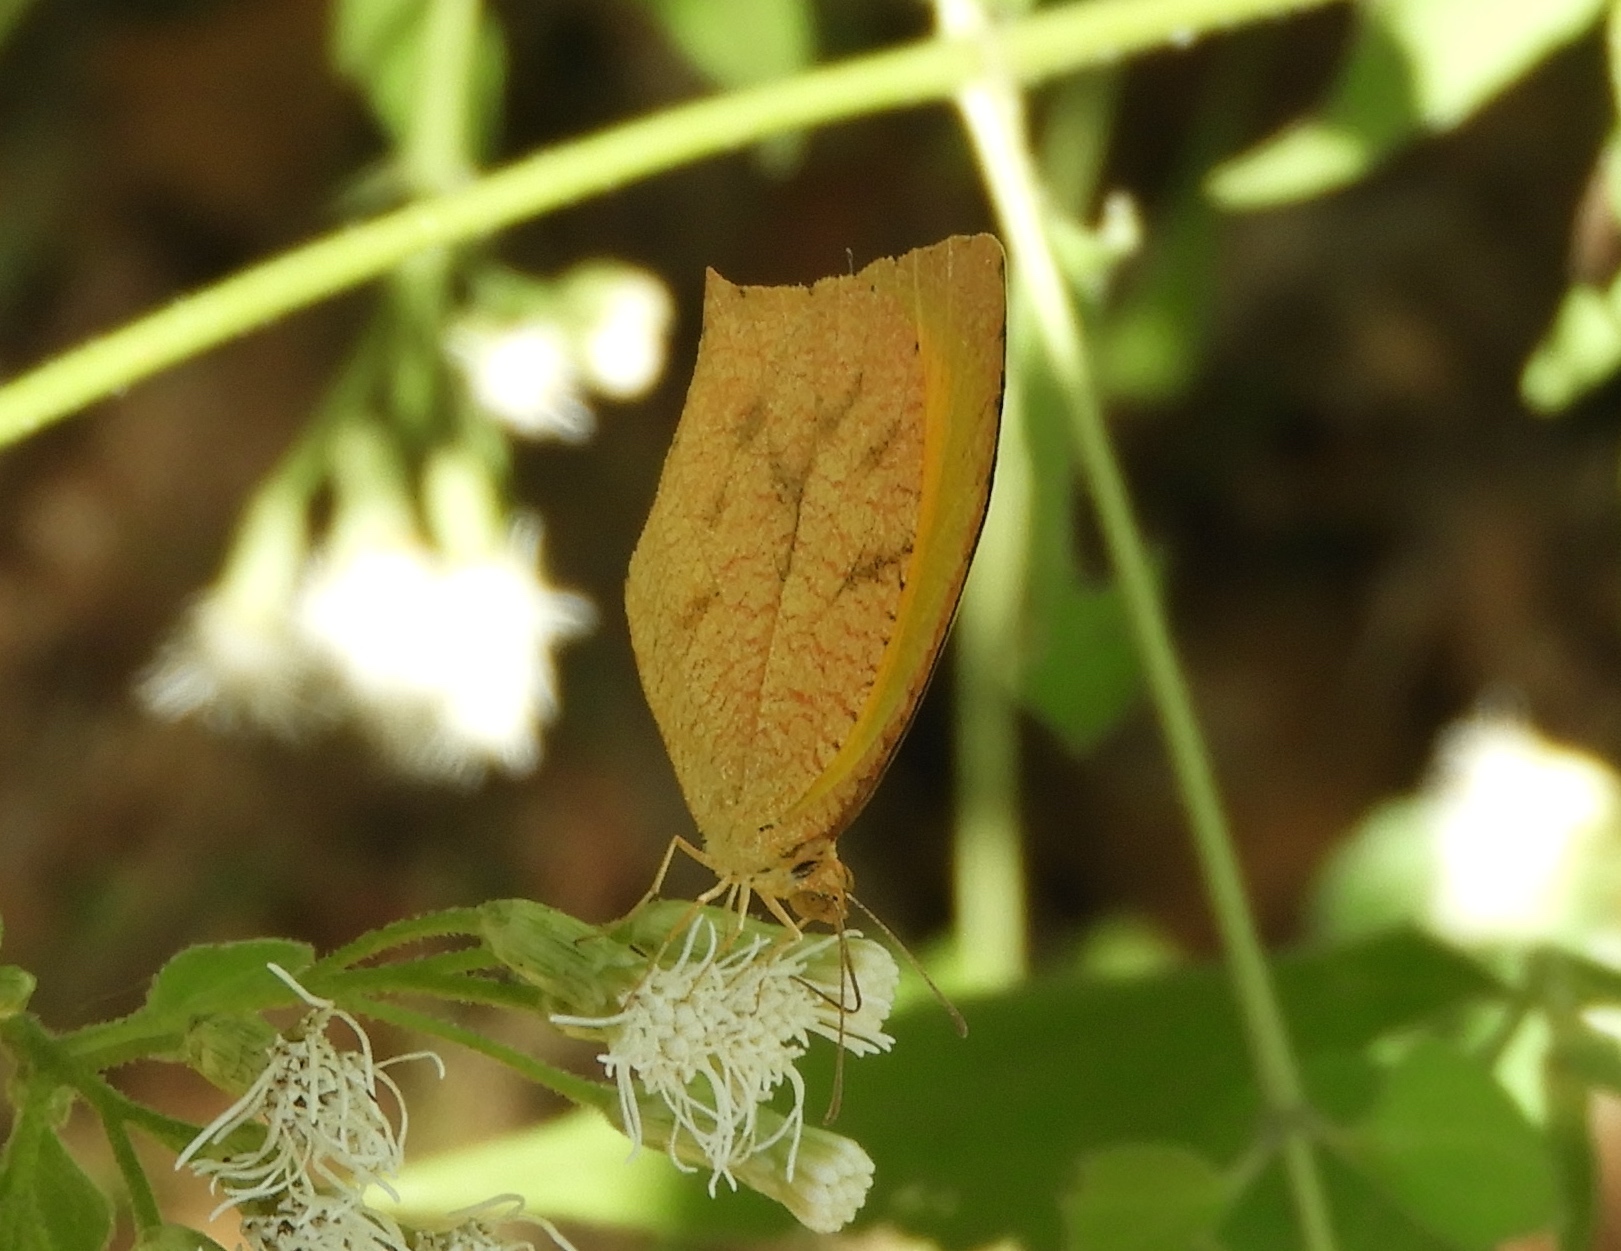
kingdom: Animalia
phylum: Arthropoda
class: Insecta
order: Lepidoptera
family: Pieridae
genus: Pyrisitia
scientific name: Pyrisitia proterpia
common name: Tailed orange
